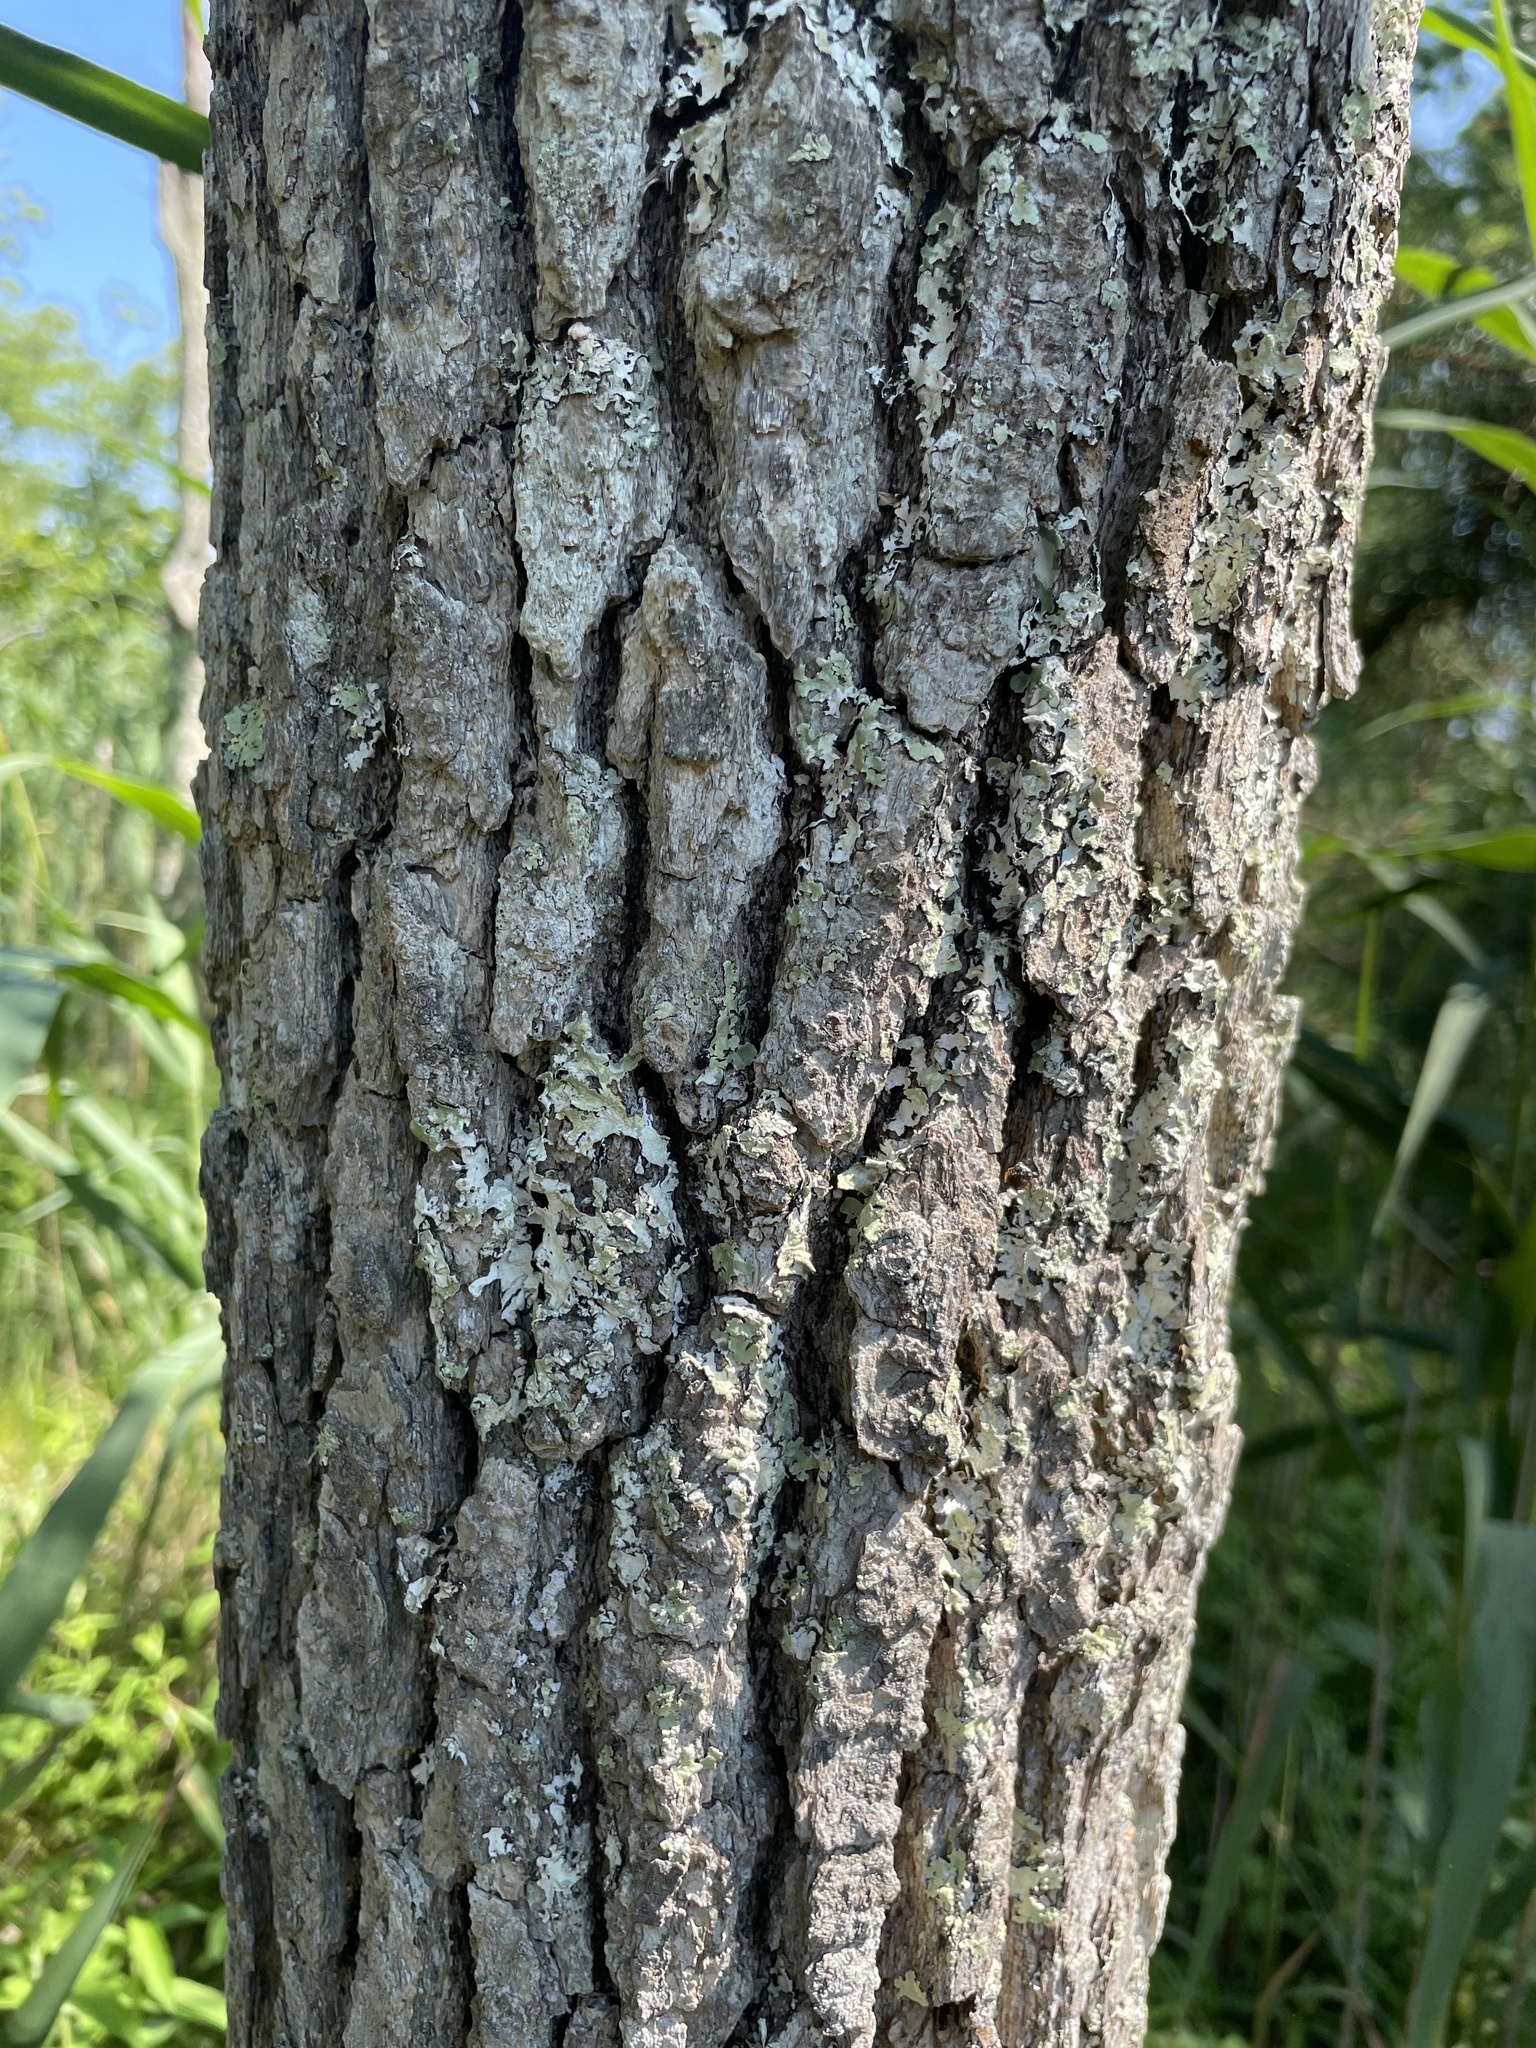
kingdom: Plantae
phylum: Tracheophyta
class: Magnoliopsida
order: Cornales
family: Nyssaceae
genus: Nyssa
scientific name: Nyssa sylvatica
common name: Black tupelo
